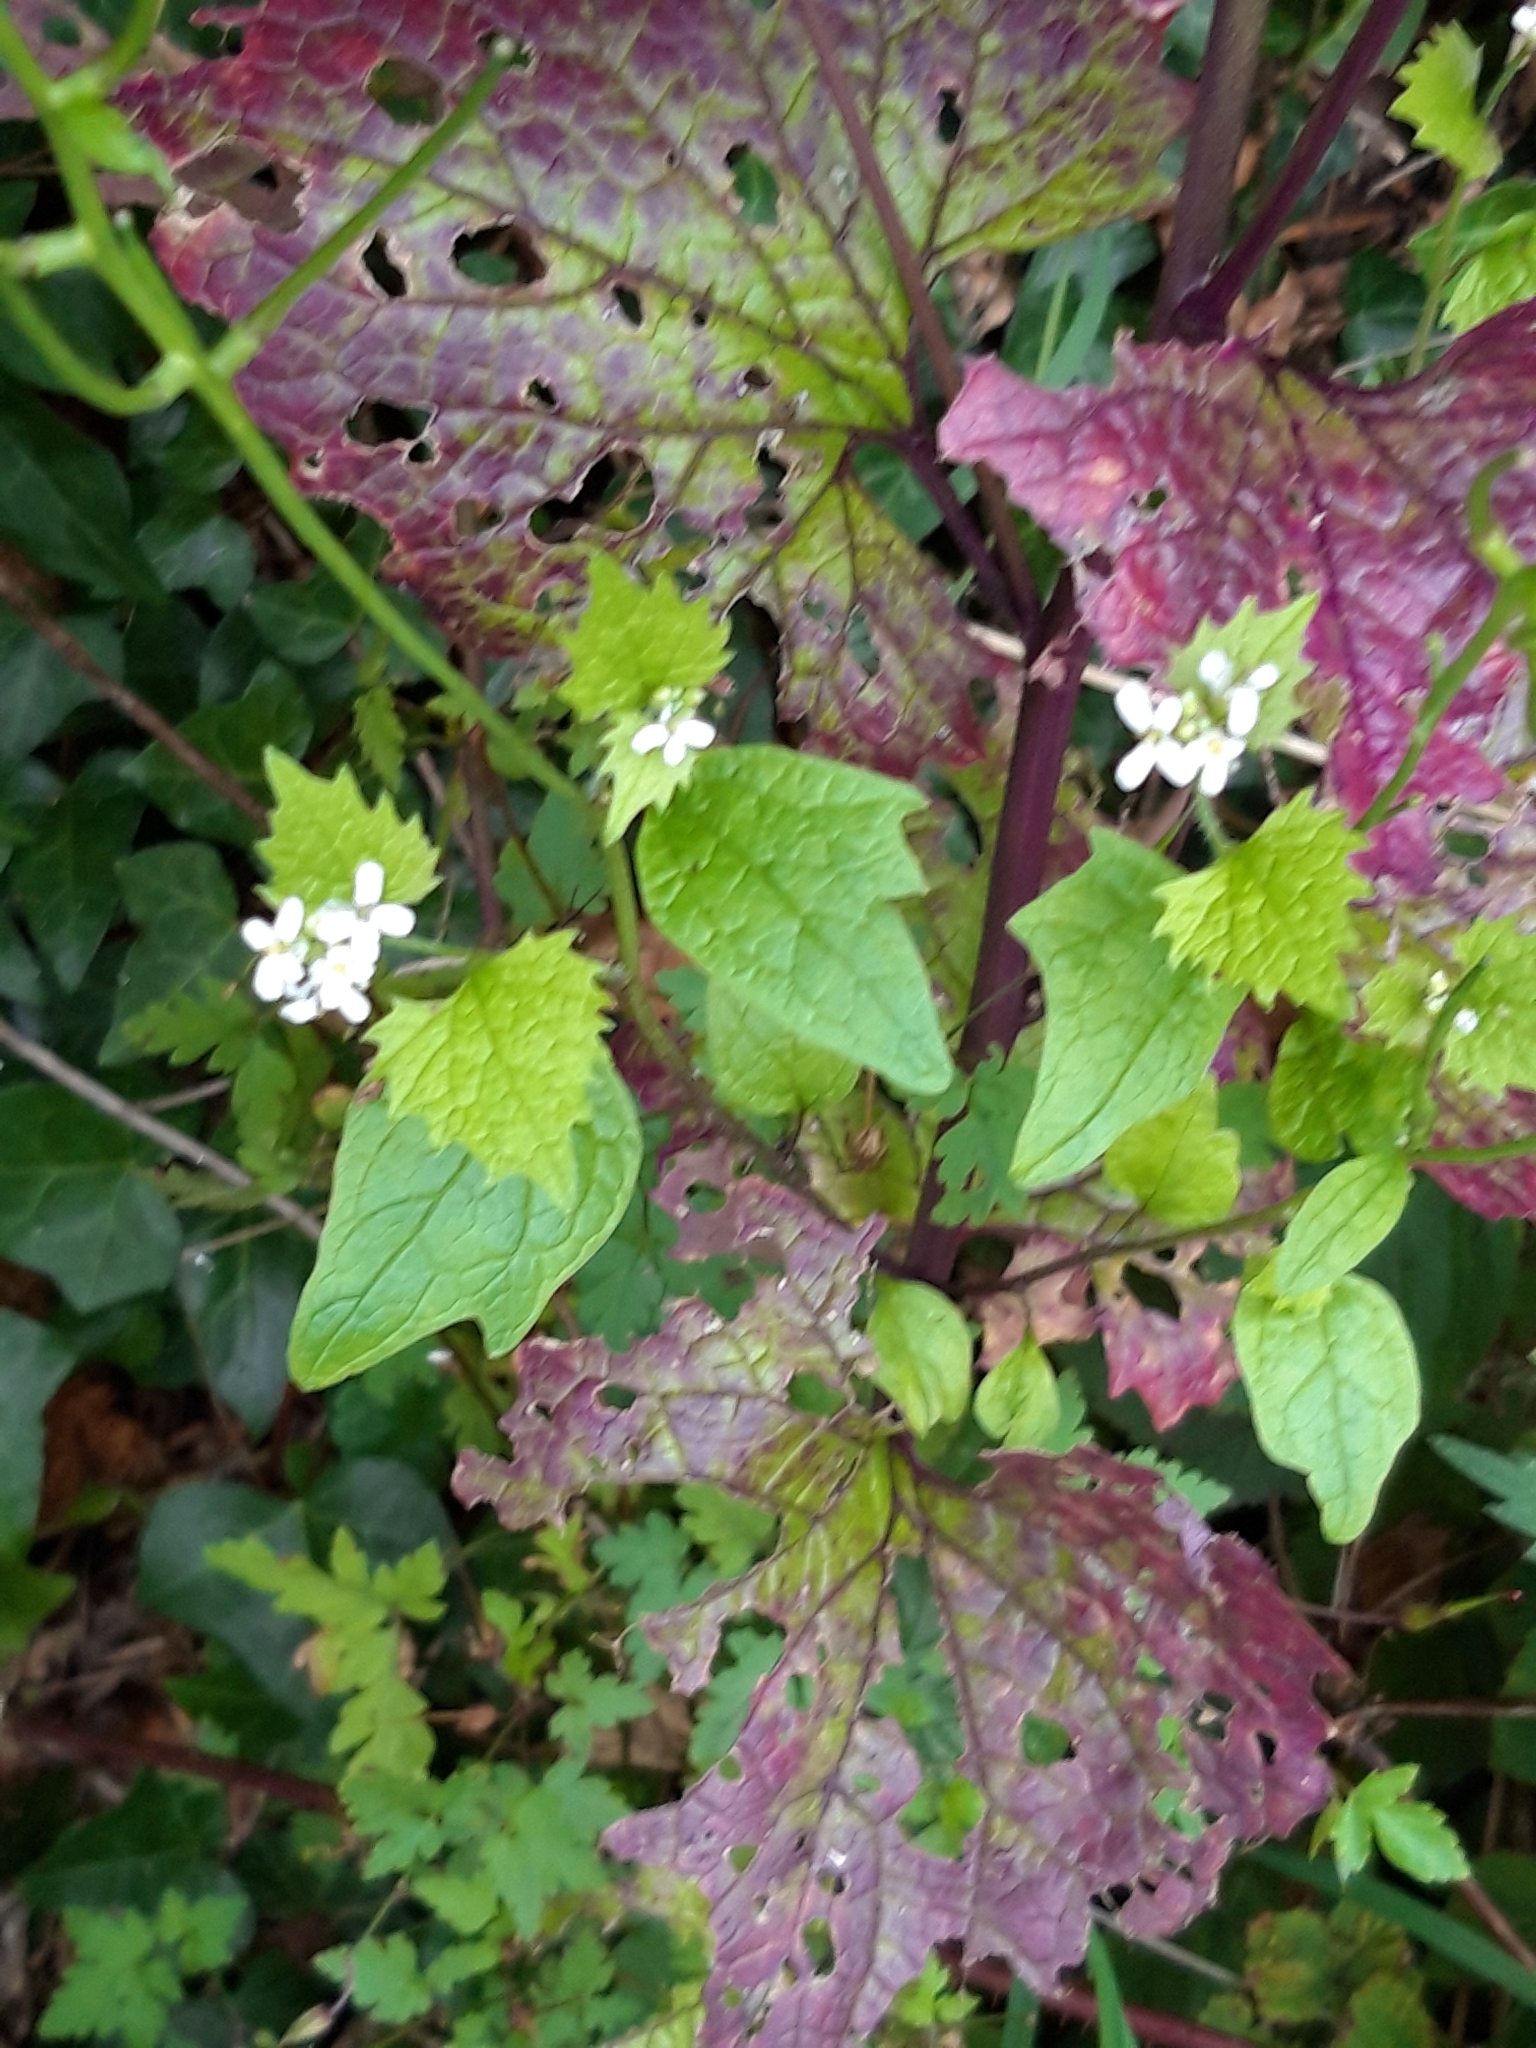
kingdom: Plantae
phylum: Tracheophyta
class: Magnoliopsida
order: Brassicales
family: Brassicaceae
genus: Alliaria
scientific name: Alliaria petiolata
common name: Garlic mustard
